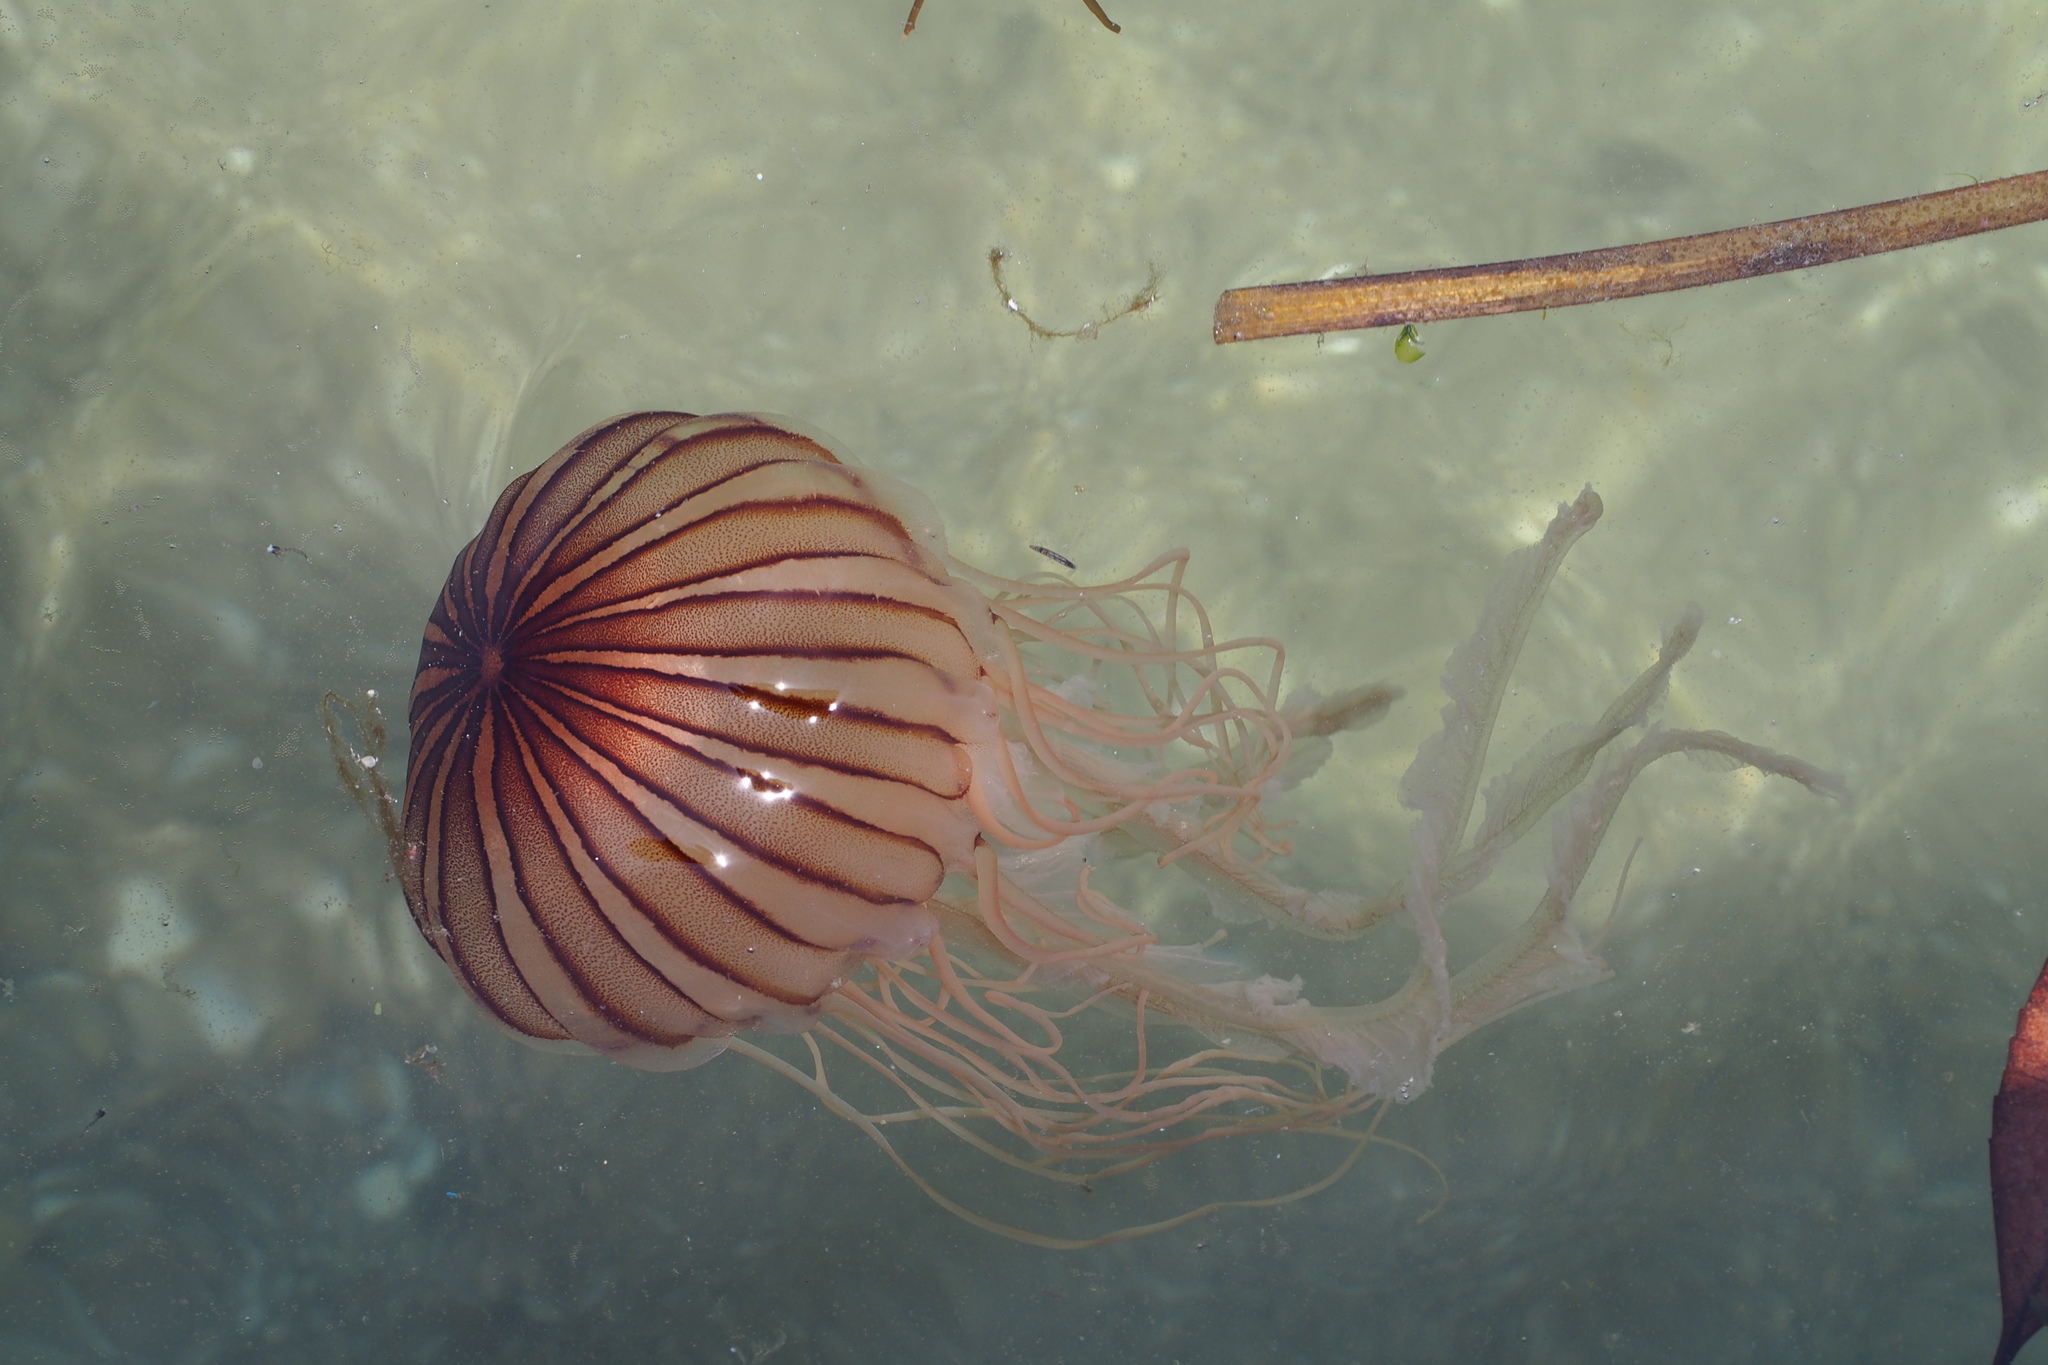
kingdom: Animalia
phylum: Cnidaria
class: Scyphozoa
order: Semaeostomeae
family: Pelagiidae
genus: Chrysaora
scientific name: Chrysaora pacifica
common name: Sea nettle
